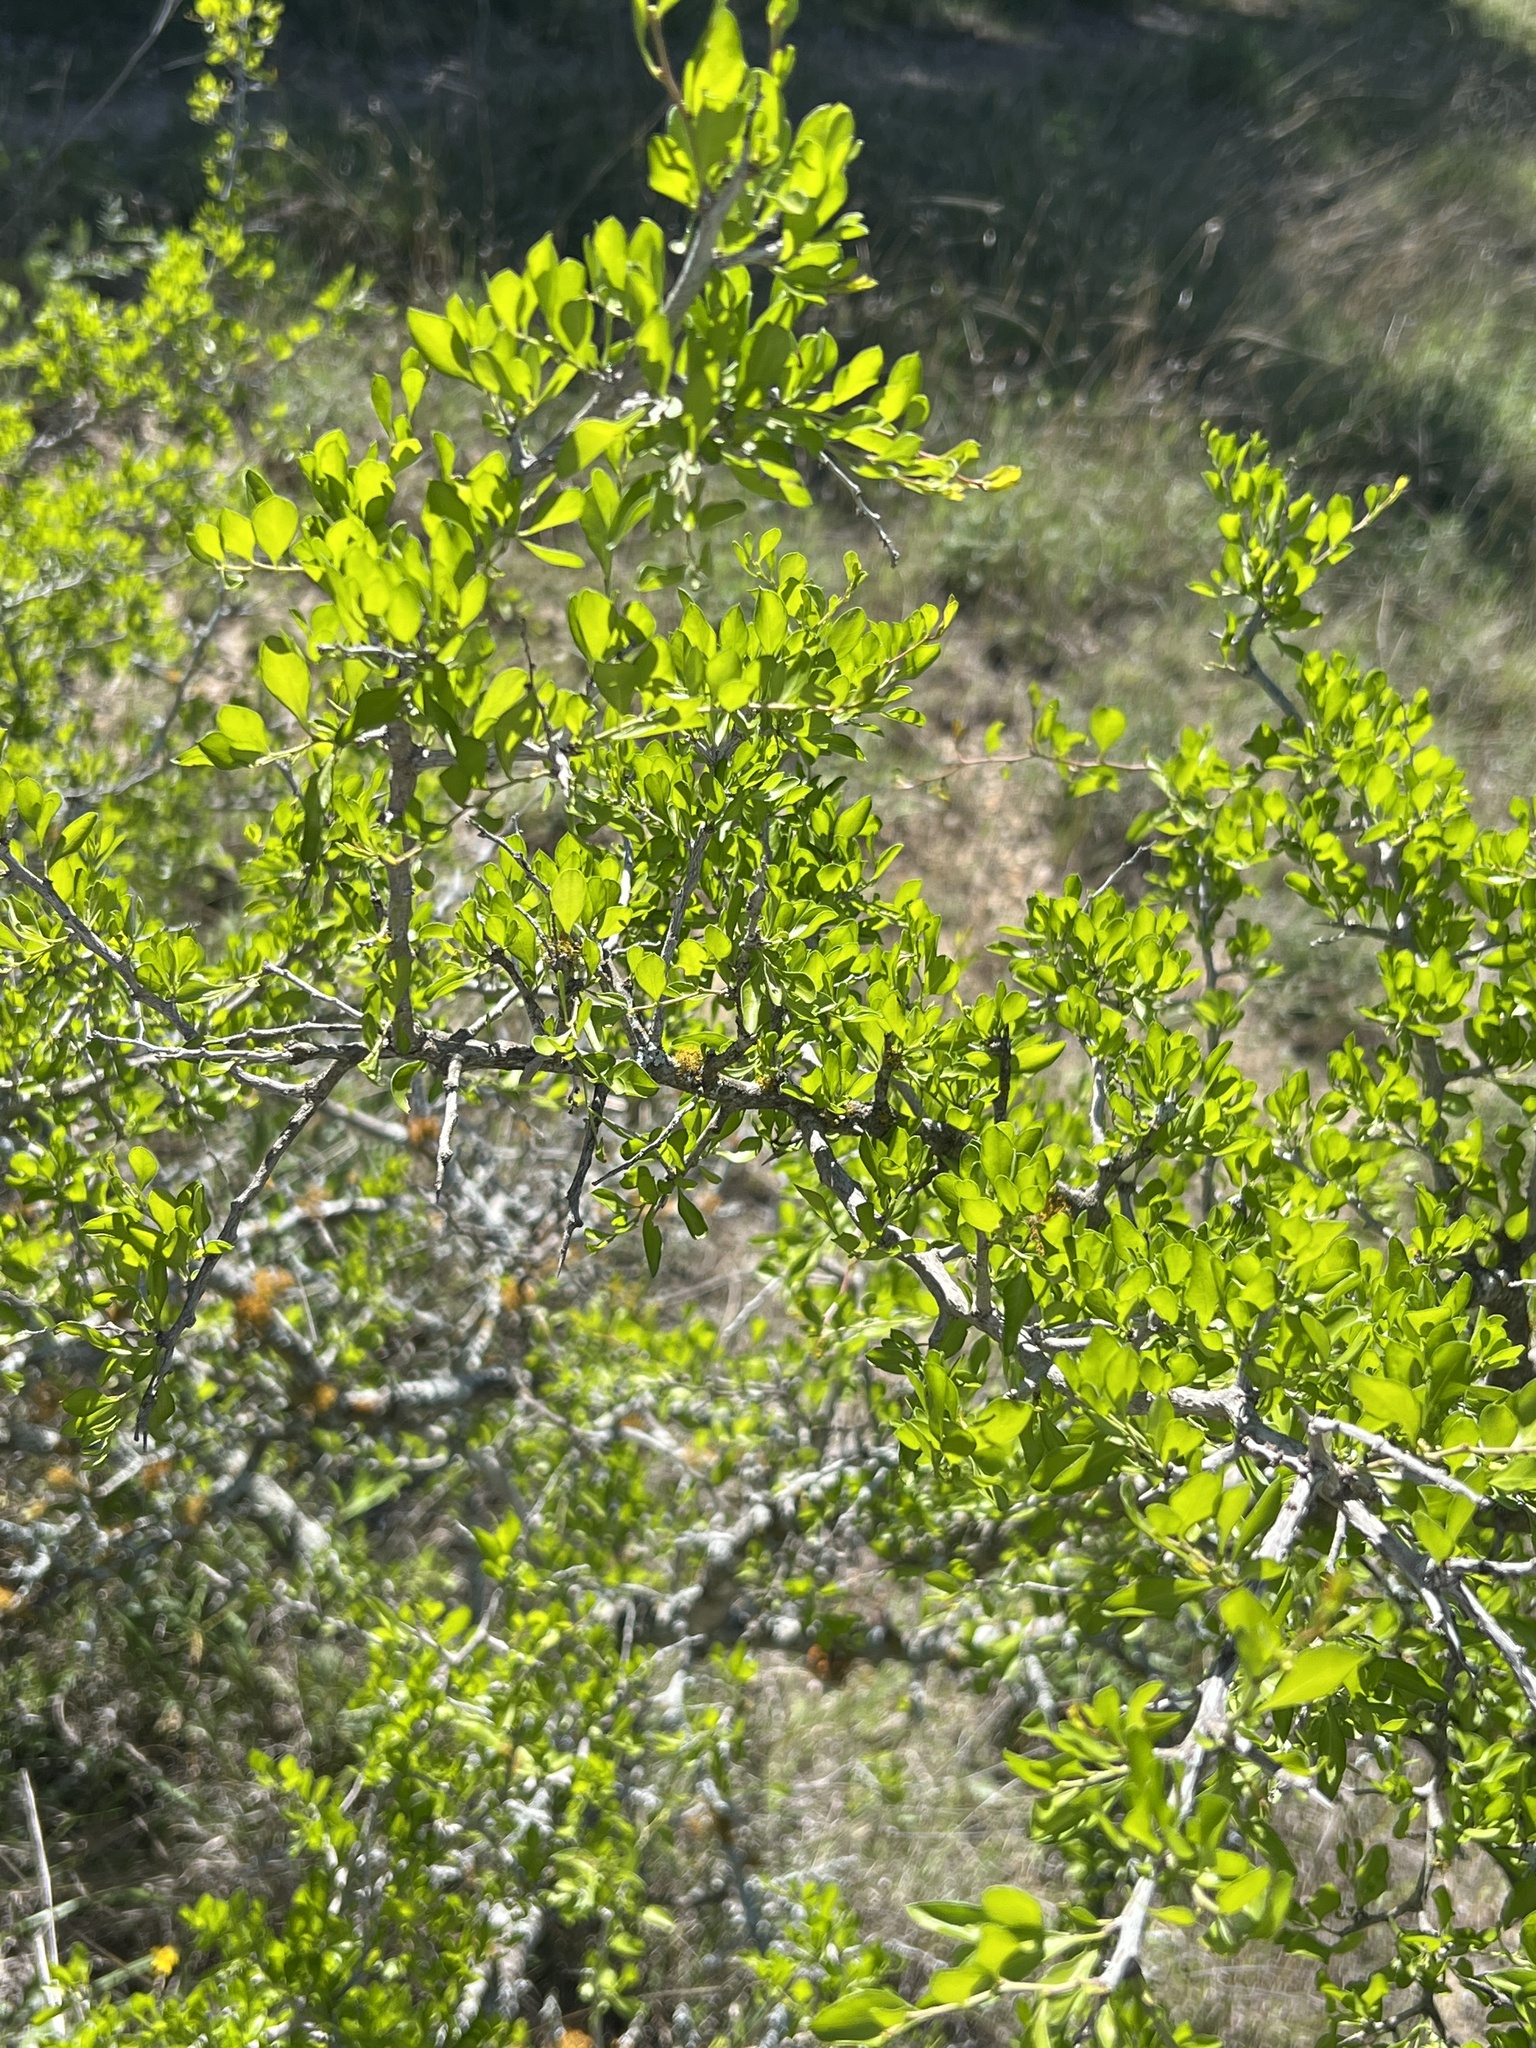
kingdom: Plantae
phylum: Tracheophyta
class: Magnoliopsida
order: Rosales
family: Rhamnaceae
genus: Condalia
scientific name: Condalia hookeri
